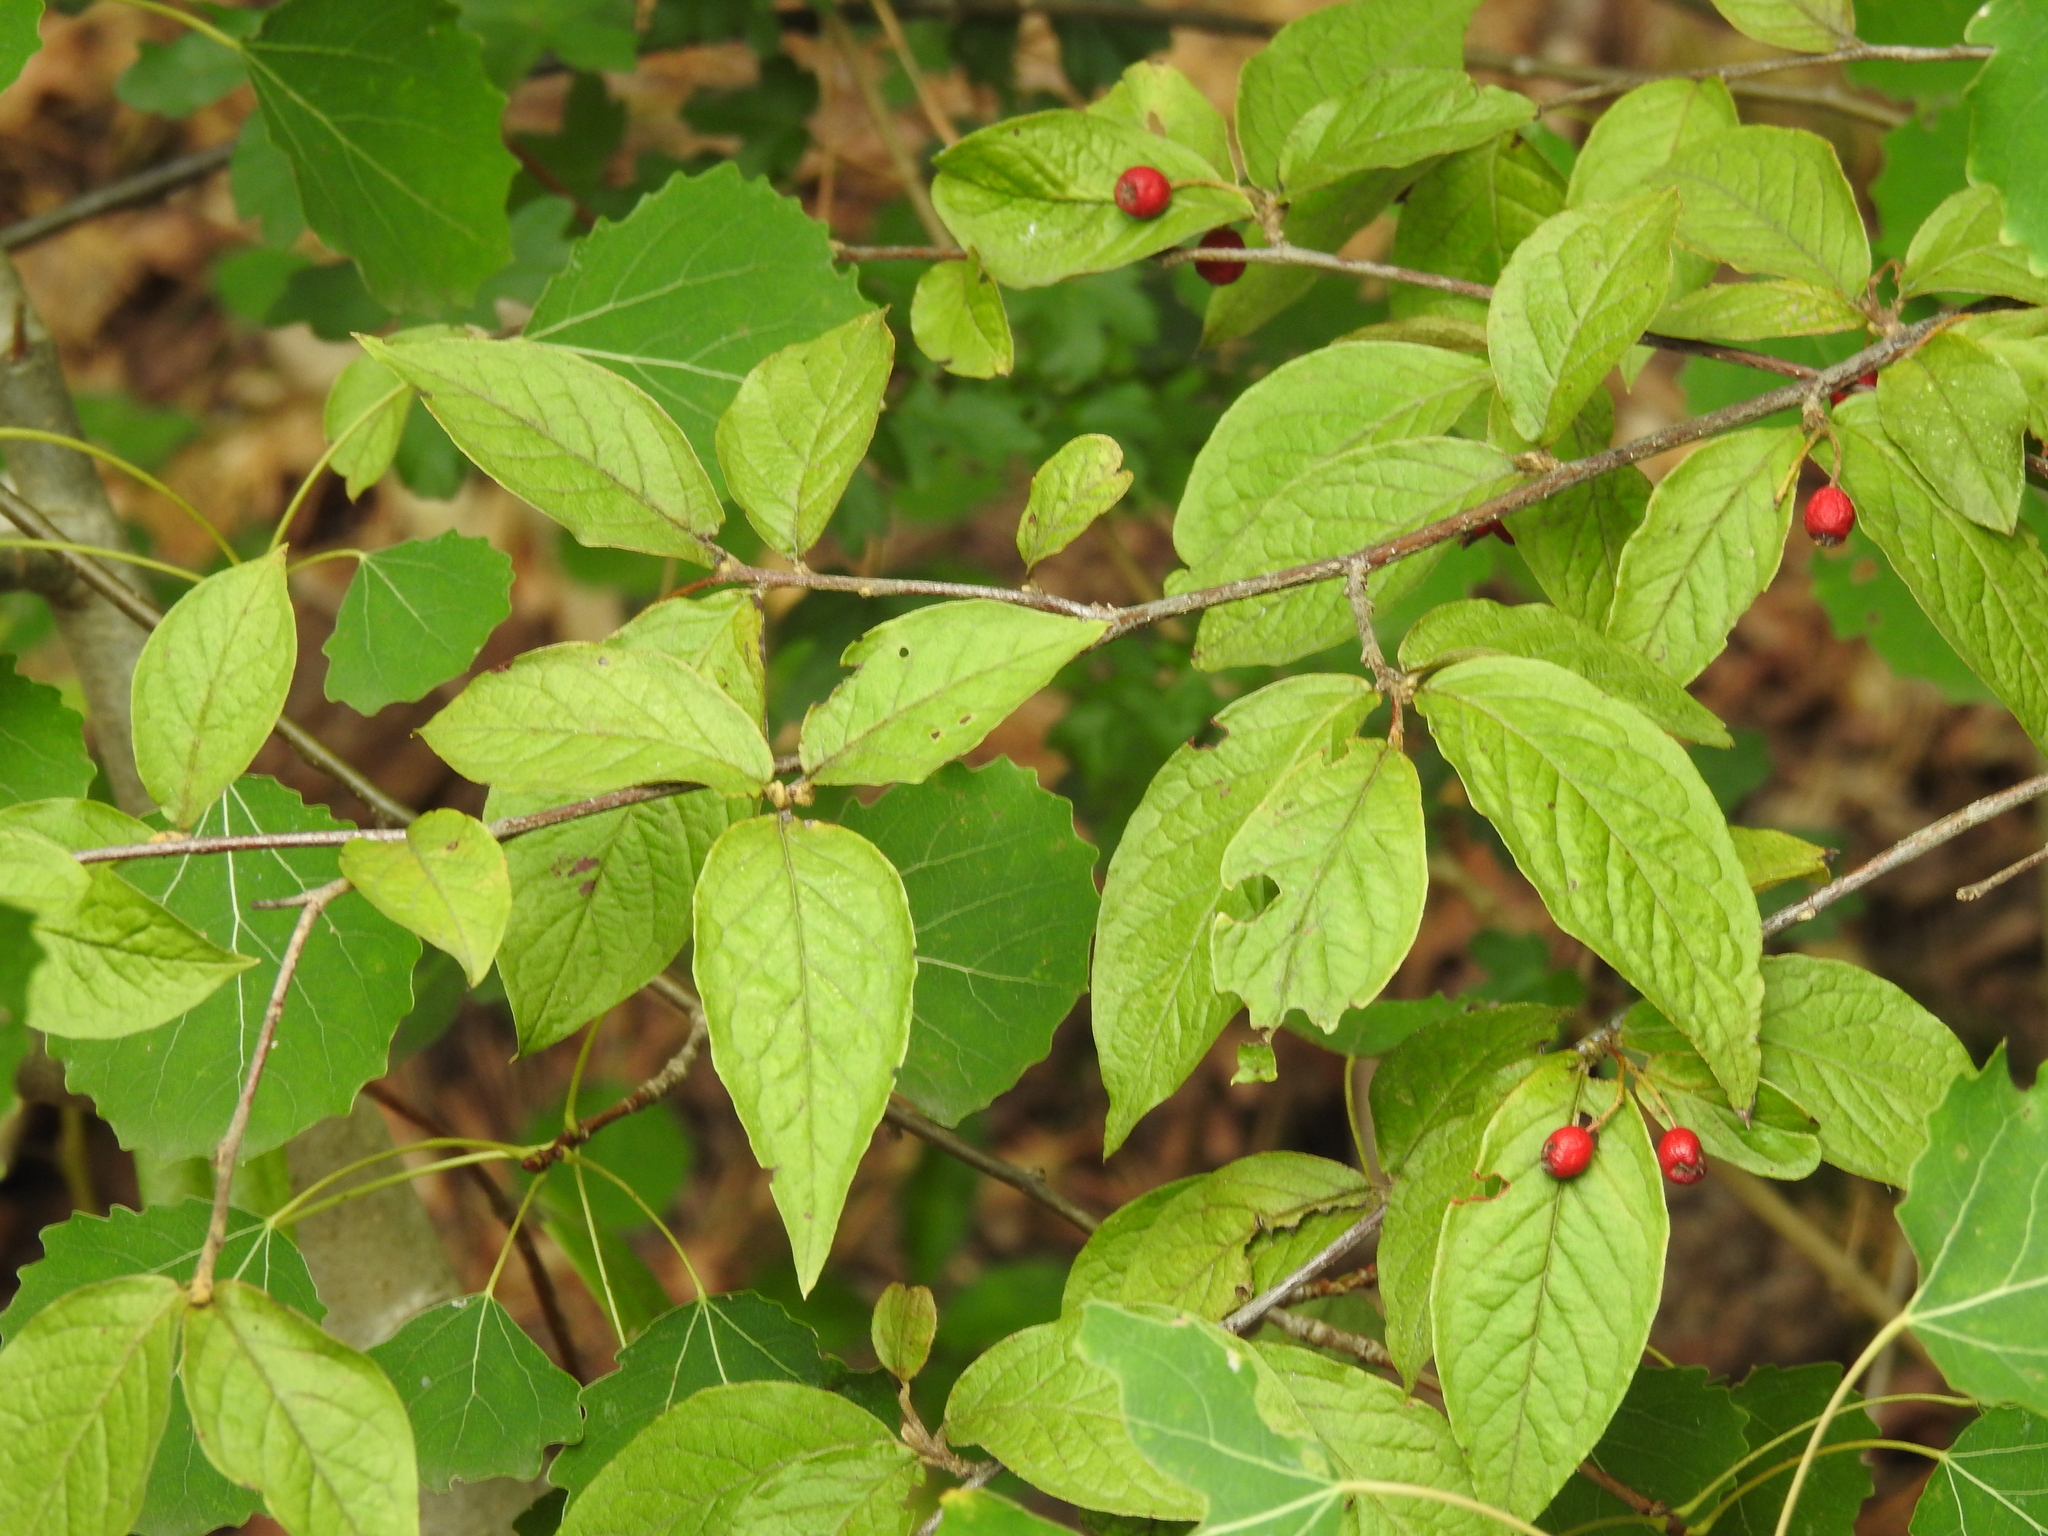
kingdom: Plantae
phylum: Tracheophyta
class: Magnoliopsida
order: Rosales
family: Rosaceae
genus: Cotoneaster
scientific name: Cotoneaster bullatus
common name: Hollyberry cotoneaster
